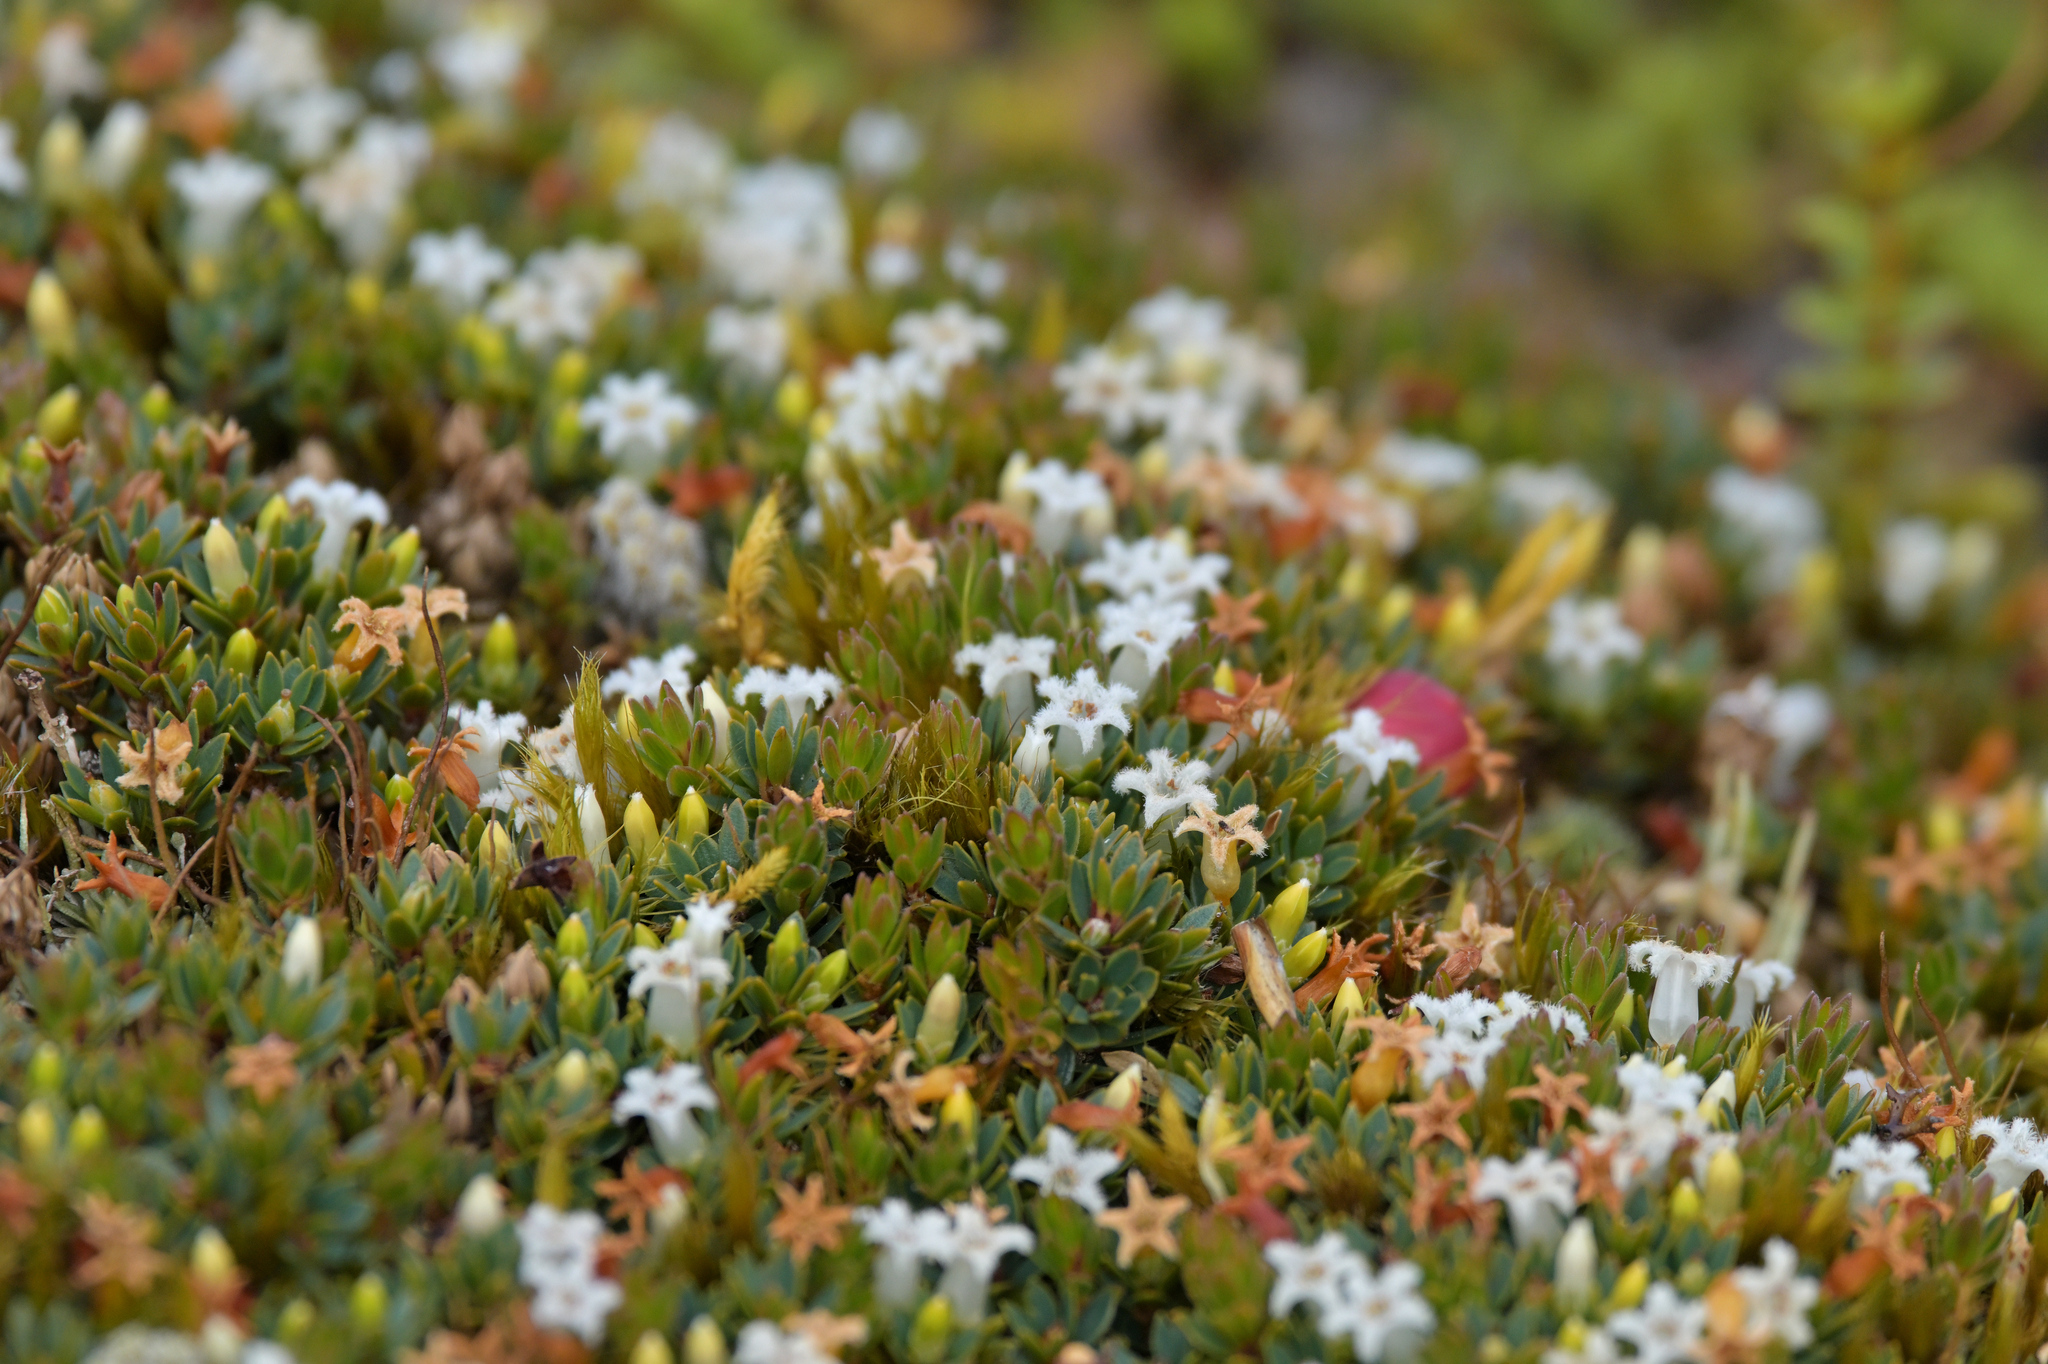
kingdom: Plantae
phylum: Tracheophyta
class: Magnoliopsida
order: Ericales
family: Ericaceae
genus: Pentachondra
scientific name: Pentachondra pumila
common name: Carpet-heath
